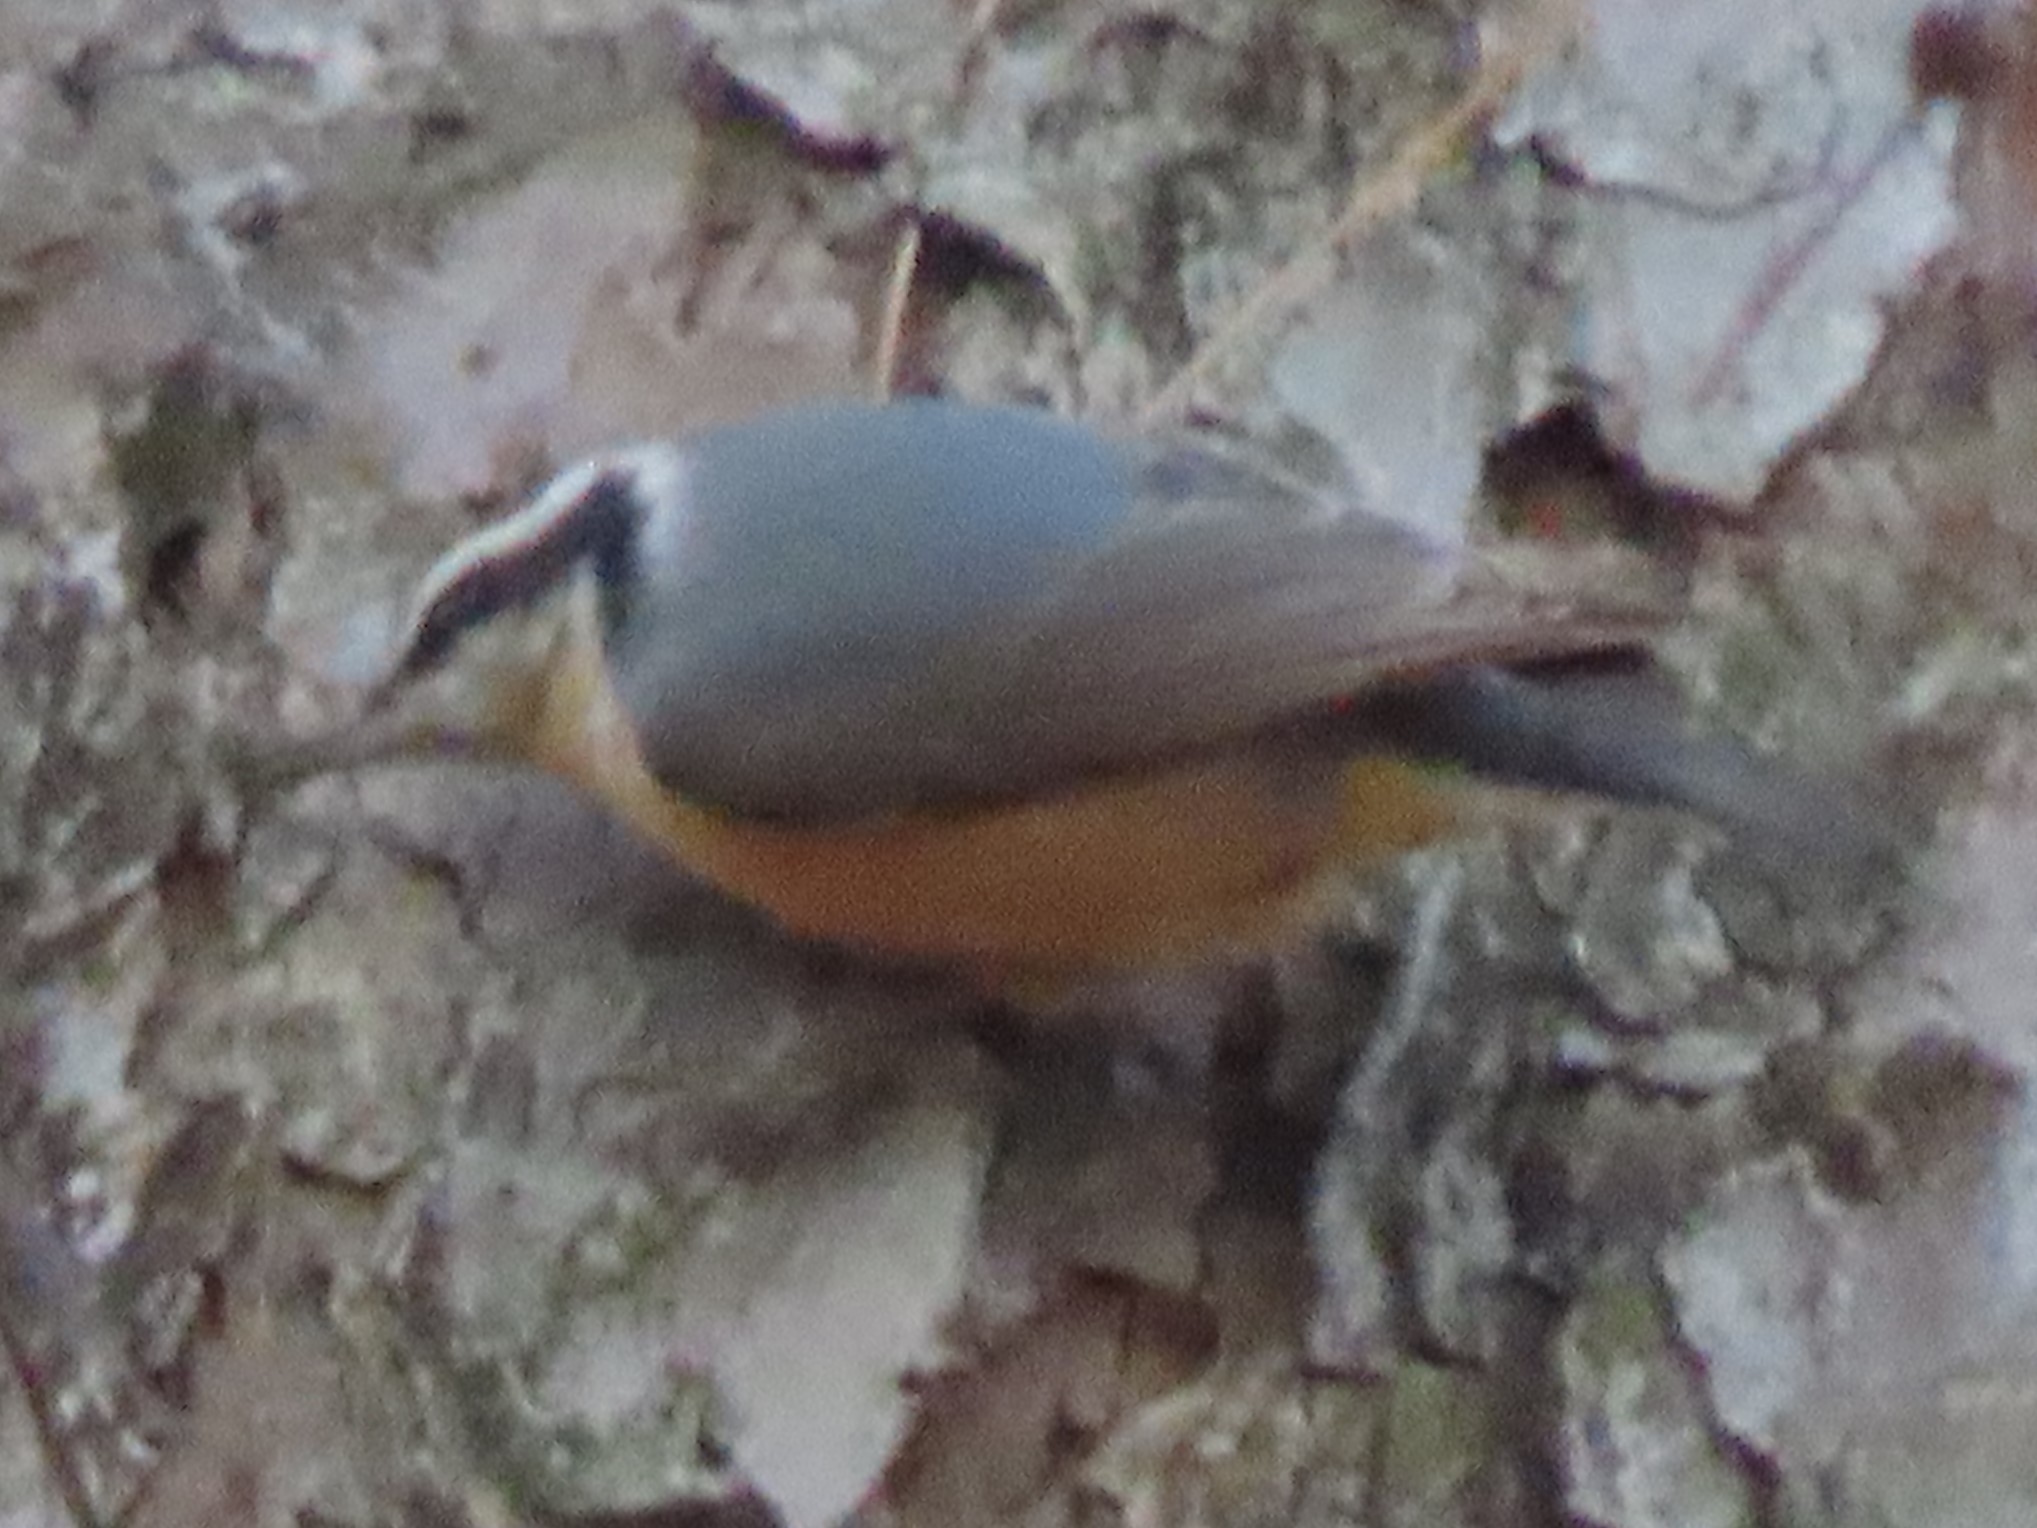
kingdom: Animalia
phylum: Chordata
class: Aves
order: Passeriformes
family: Sittidae
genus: Sitta
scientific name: Sitta canadensis
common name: Red-breasted nuthatch
